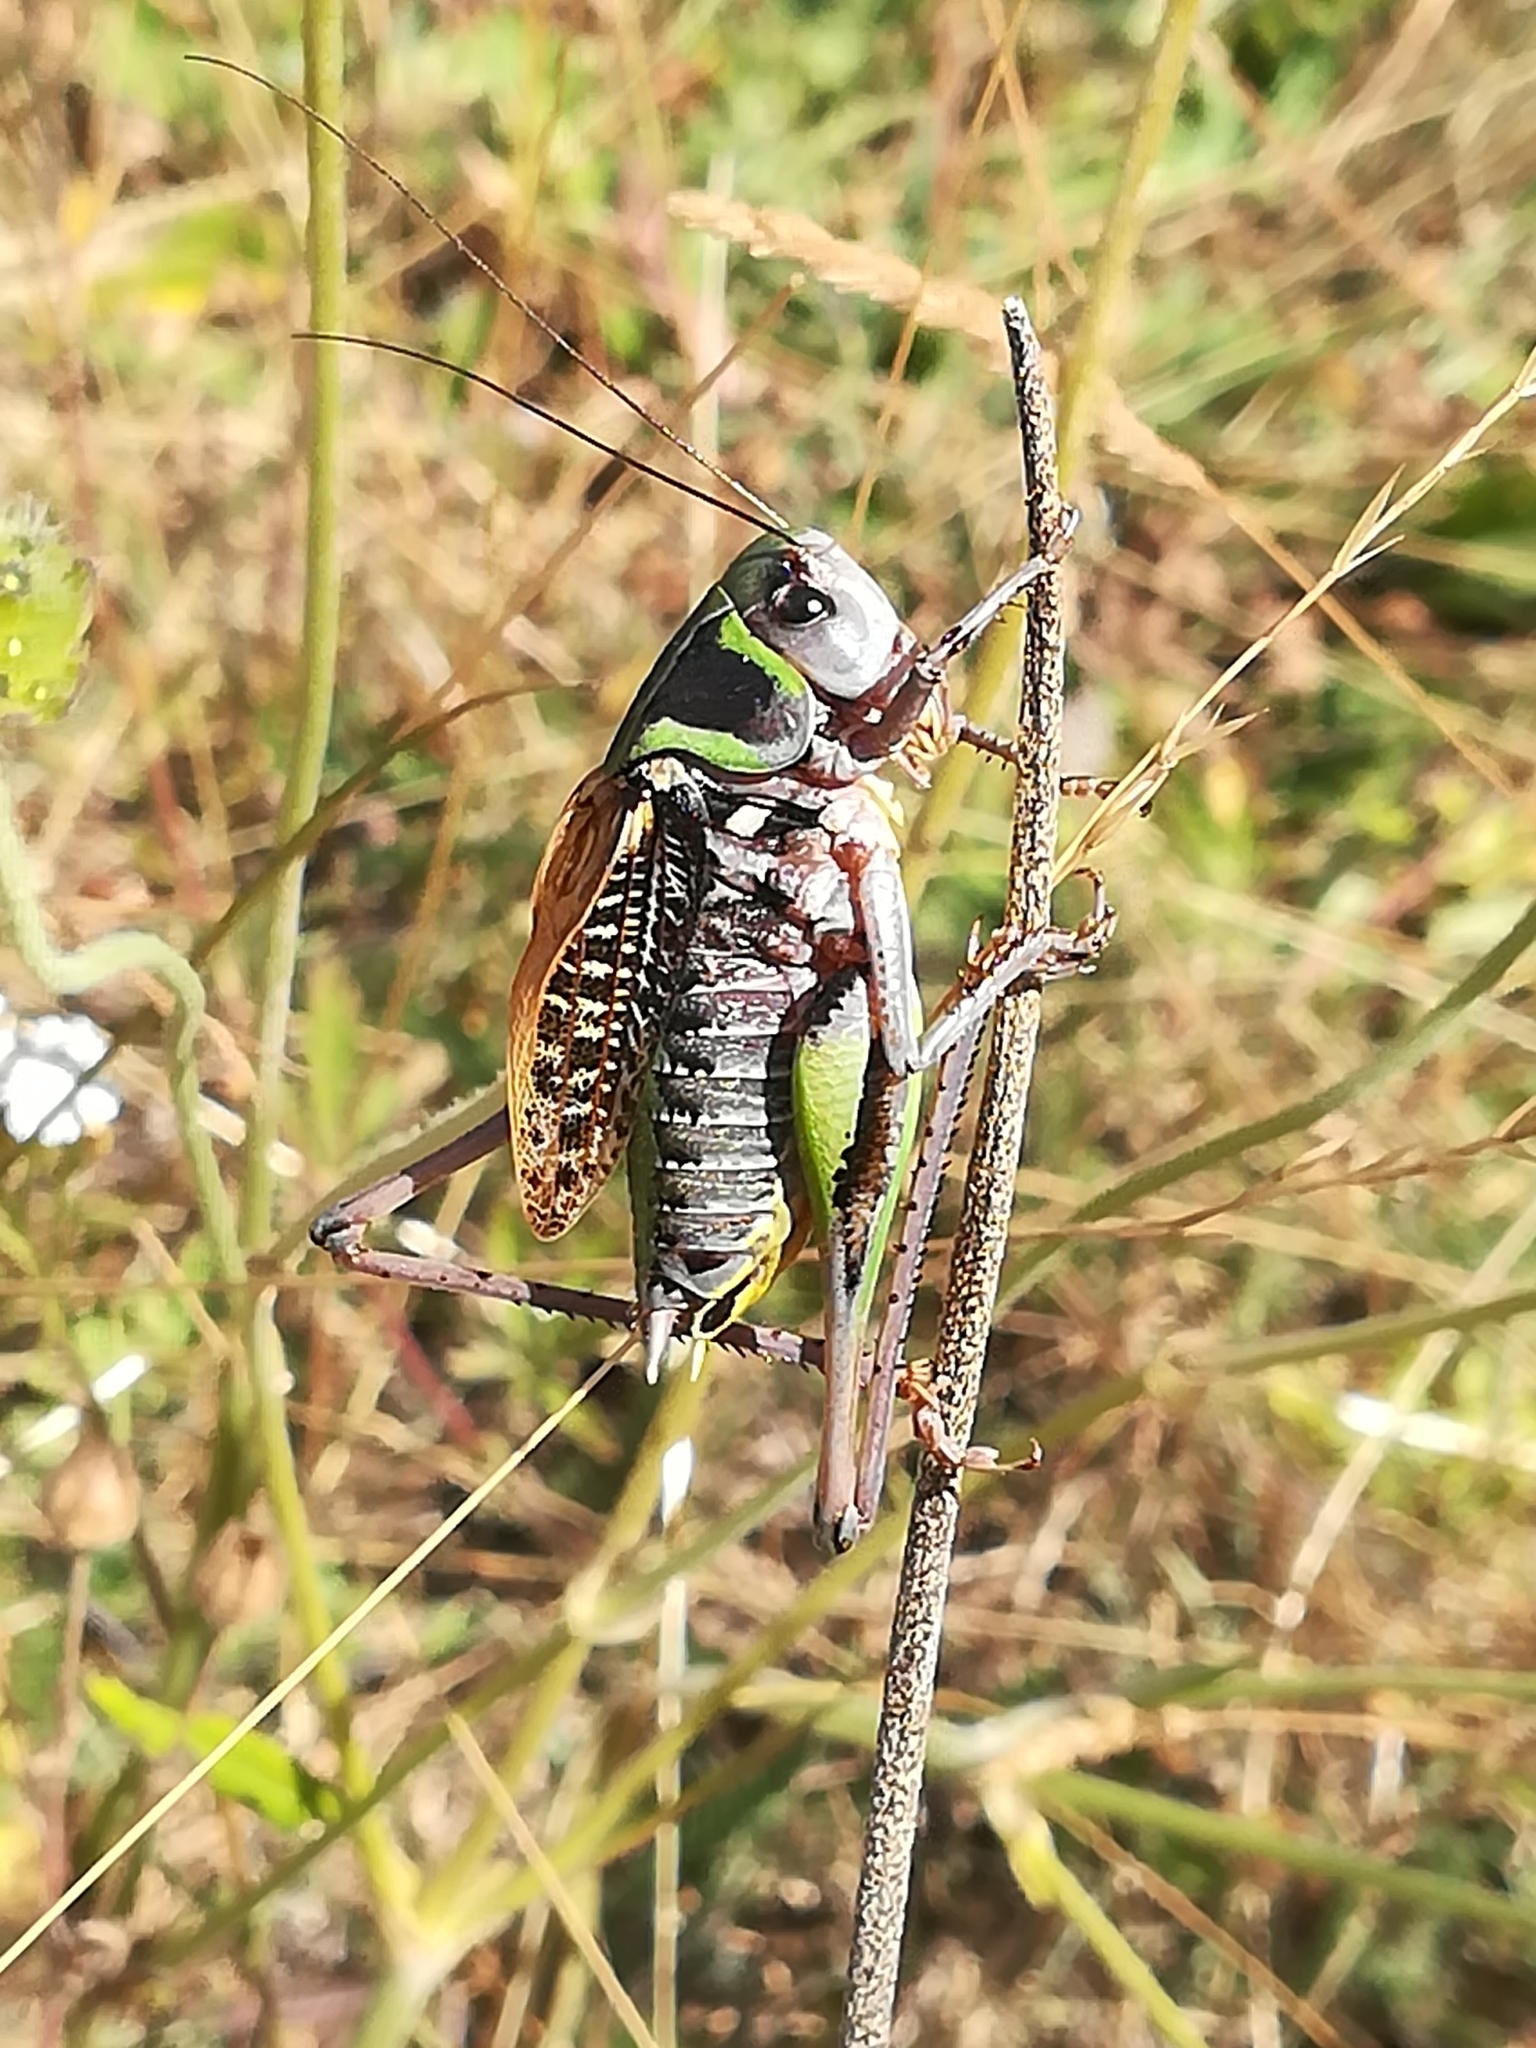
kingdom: Animalia
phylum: Arthropoda
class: Insecta
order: Orthoptera
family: Tettigoniidae
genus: Decticus
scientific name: Decticus aprutianus
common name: Abruzzo wart-biter
